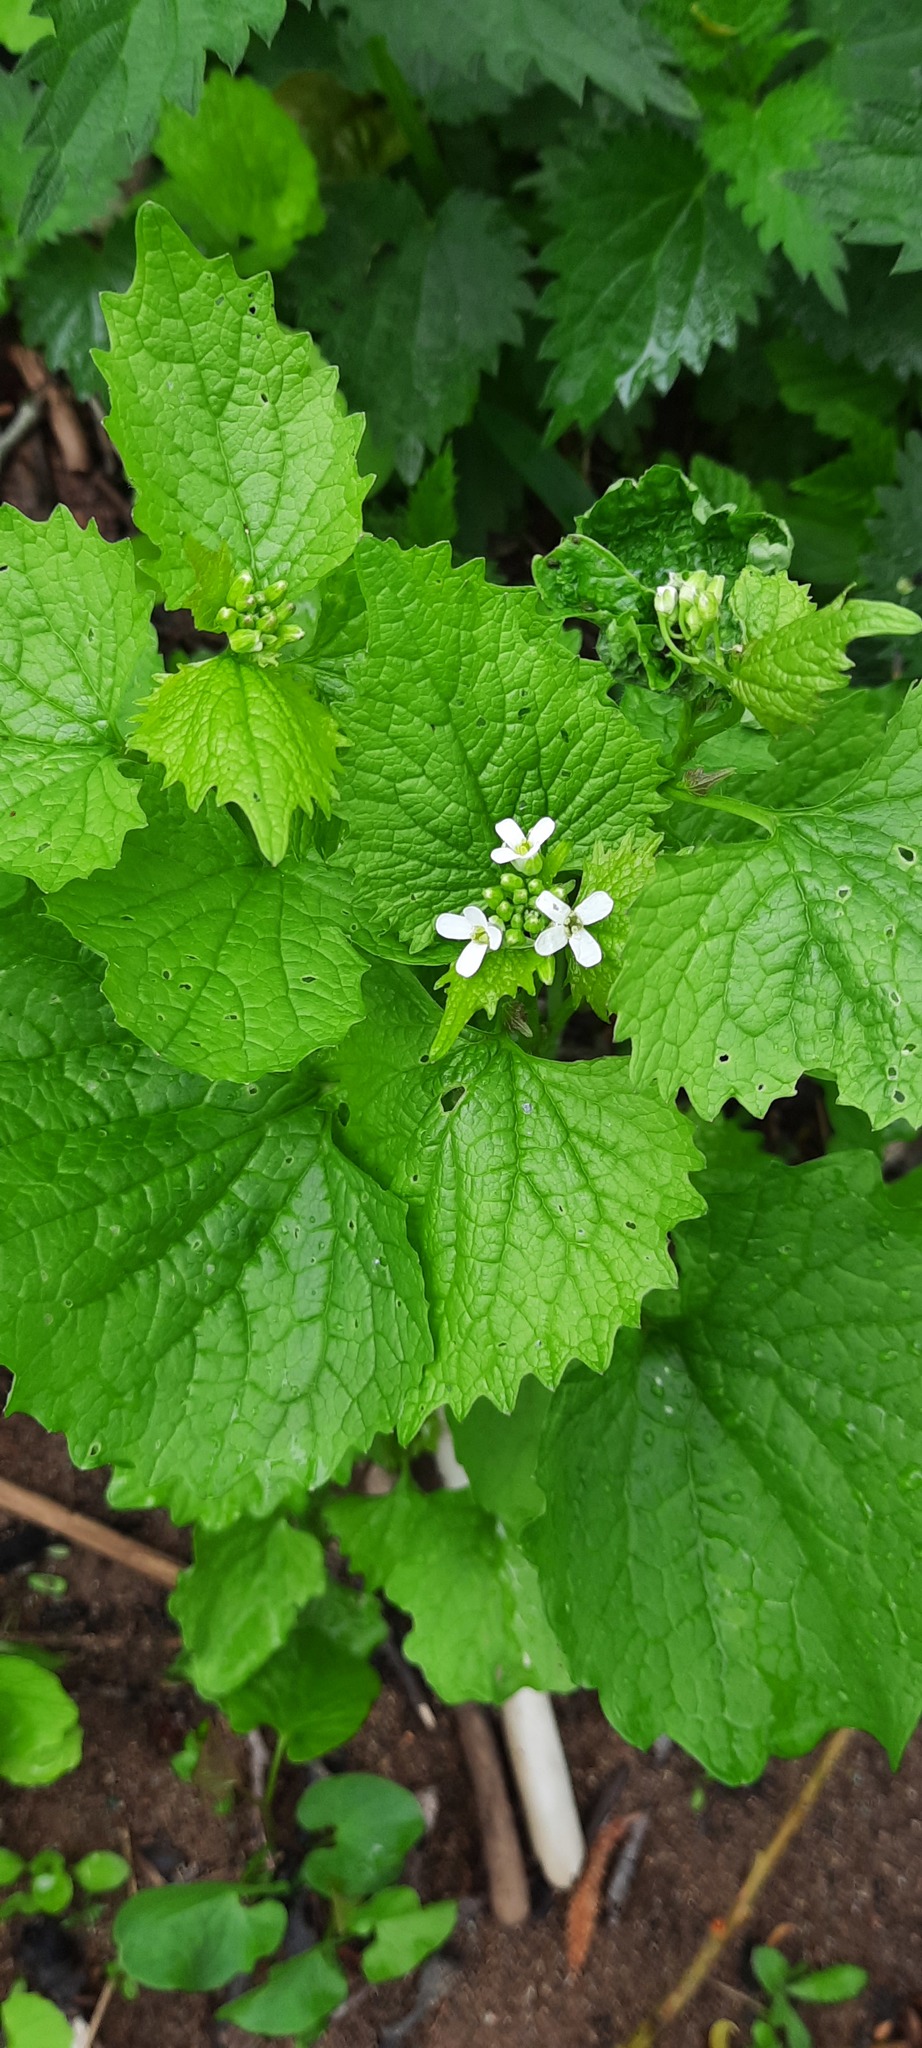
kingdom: Plantae
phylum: Tracheophyta
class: Magnoliopsida
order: Brassicales
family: Brassicaceae
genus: Alliaria
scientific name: Alliaria petiolata
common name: Garlic mustard
